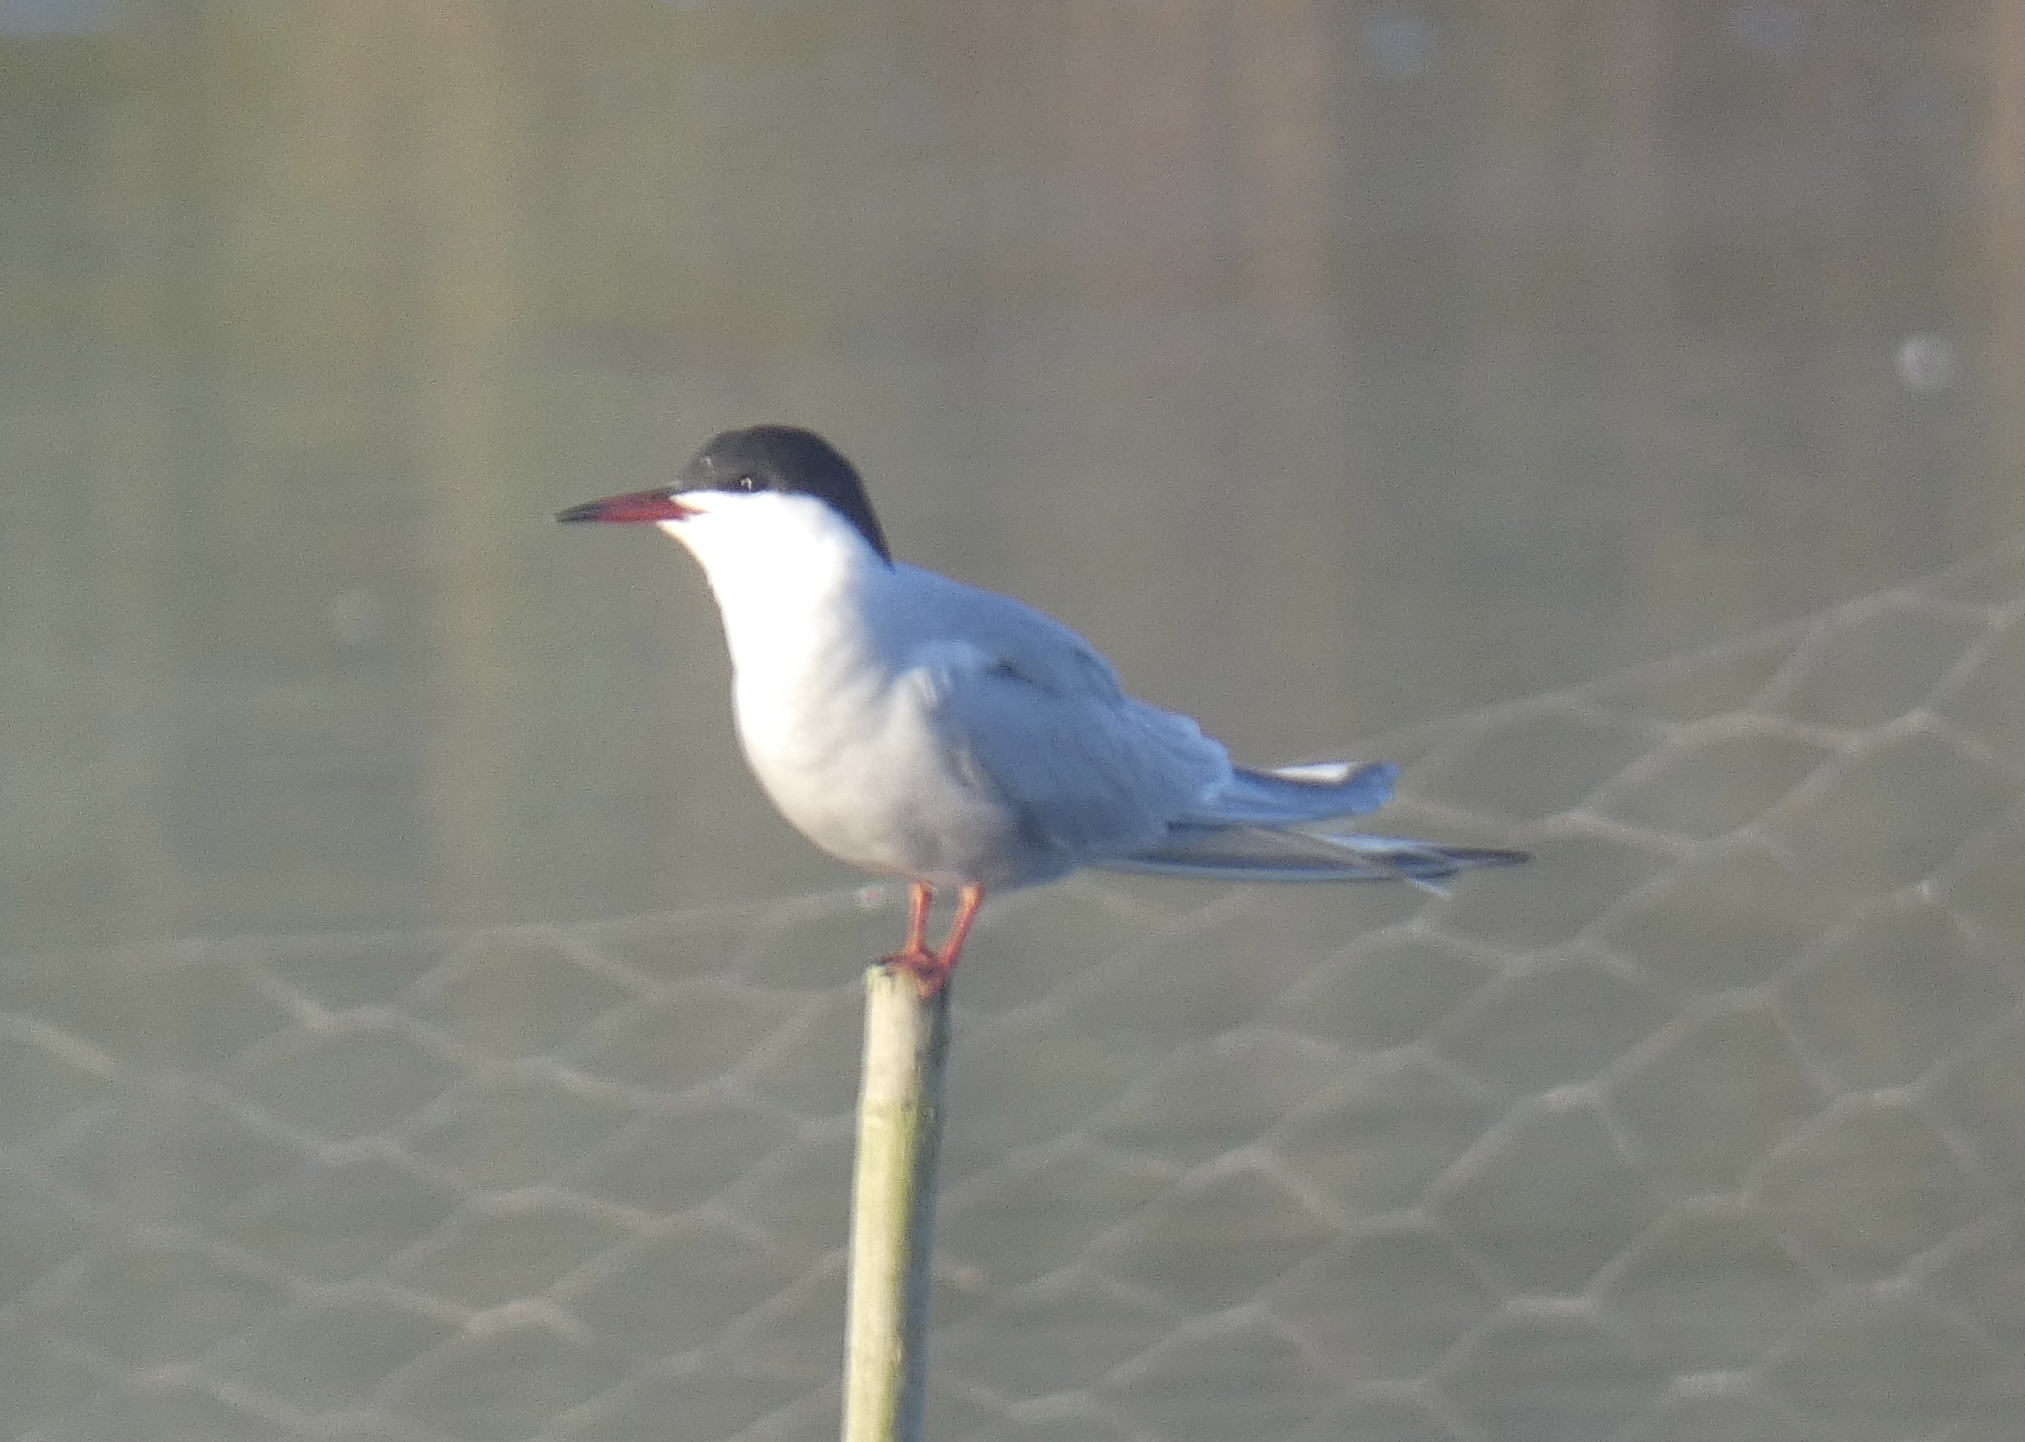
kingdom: Animalia
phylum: Chordata
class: Aves
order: Charadriiformes
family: Laridae
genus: Sterna
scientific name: Sterna hirundo
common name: Common tern
